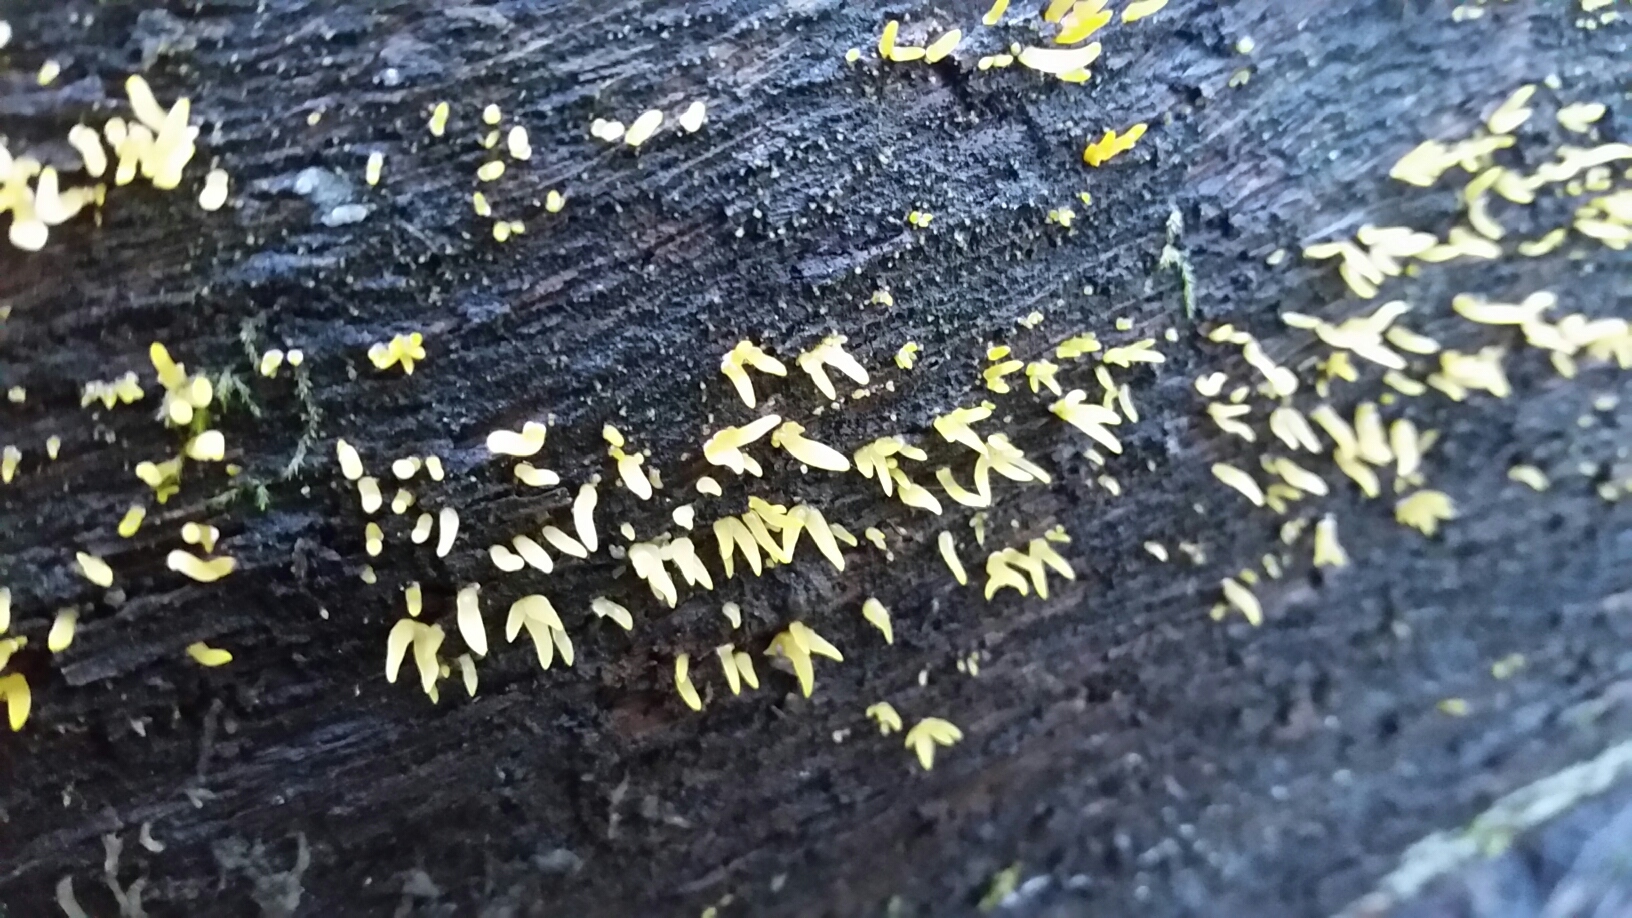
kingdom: Fungi
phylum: Basidiomycota
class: Dacrymycetes
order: Dacrymycetales
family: Dacrymycetaceae
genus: Calocera
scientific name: Calocera cornea
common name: Small stagshorn
